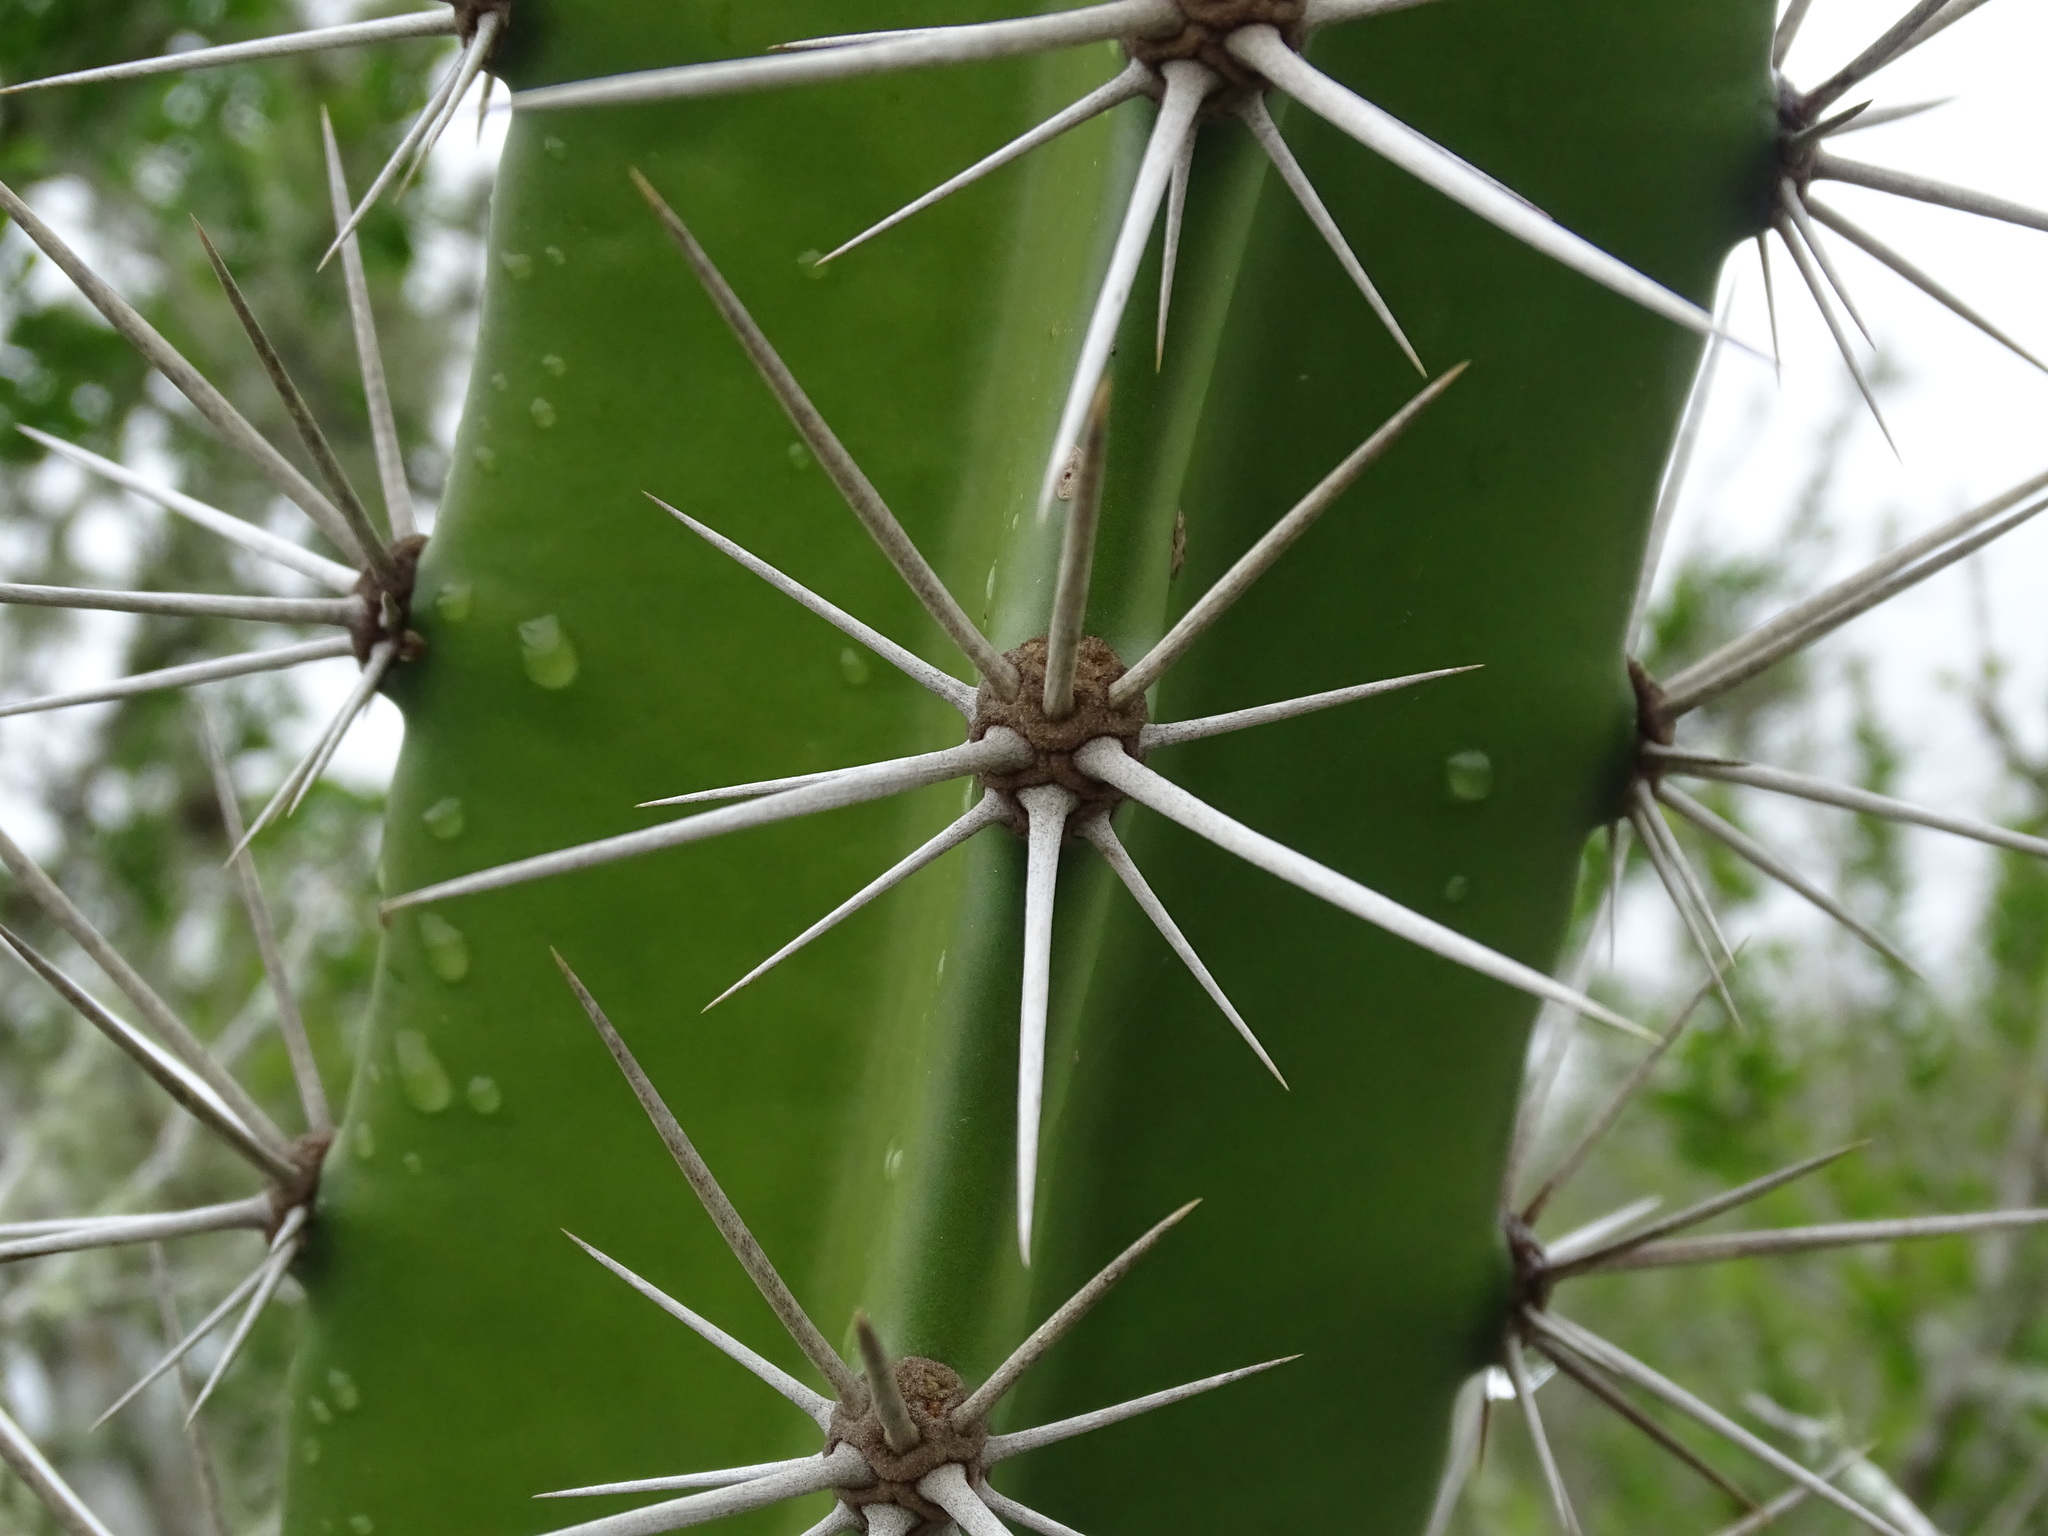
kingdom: Plantae
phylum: Tracheophyta
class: Magnoliopsida
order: Caryophyllales
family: Cactaceae
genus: Acanthocereus
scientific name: Acanthocereus tetragonus
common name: Triangle cactus
